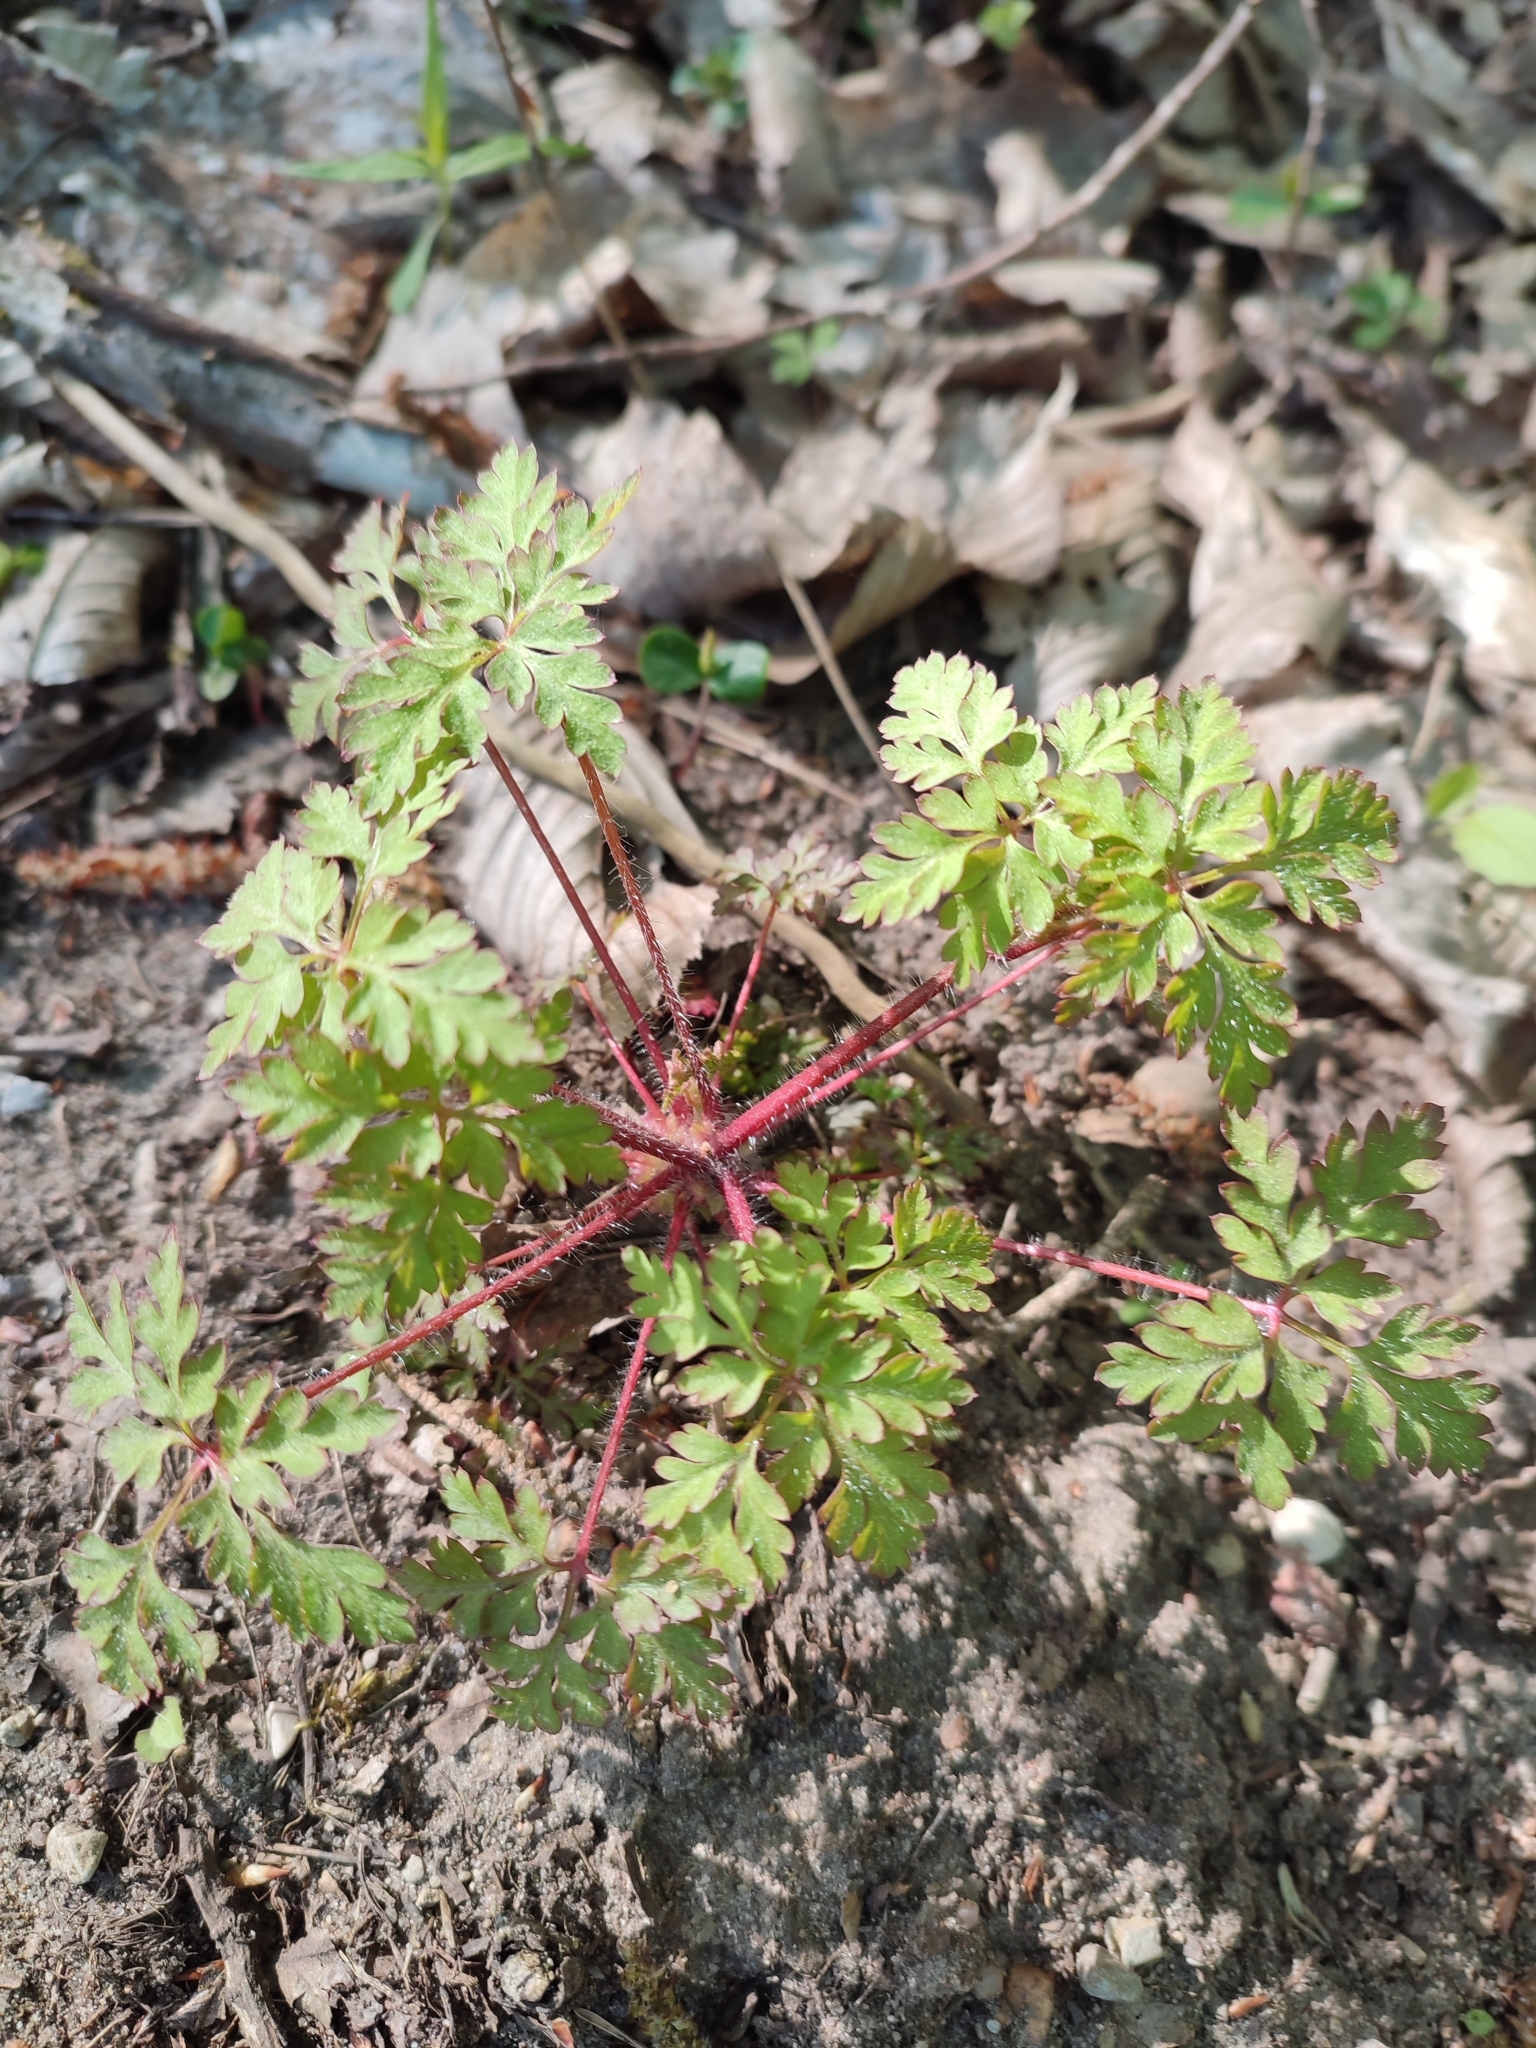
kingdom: Plantae
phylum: Tracheophyta
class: Magnoliopsida
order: Geraniales
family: Geraniaceae
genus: Geranium
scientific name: Geranium robertianum
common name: Herb-robert
